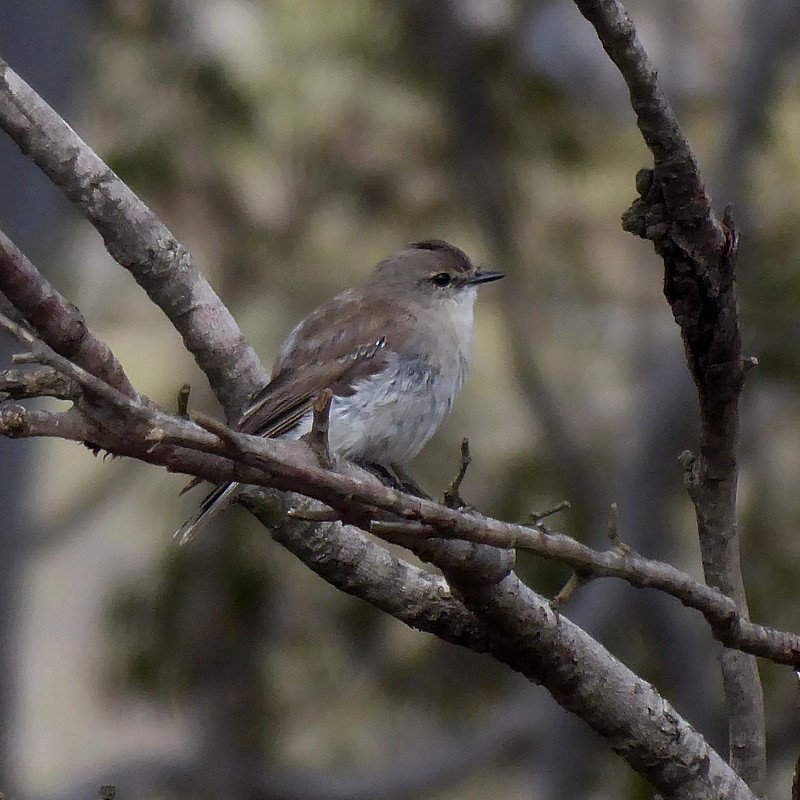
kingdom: Animalia
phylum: Chordata
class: Aves
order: Passeriformes
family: Petroicidae
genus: Microeca
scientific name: Microeca fascinans
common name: Jacky winter
